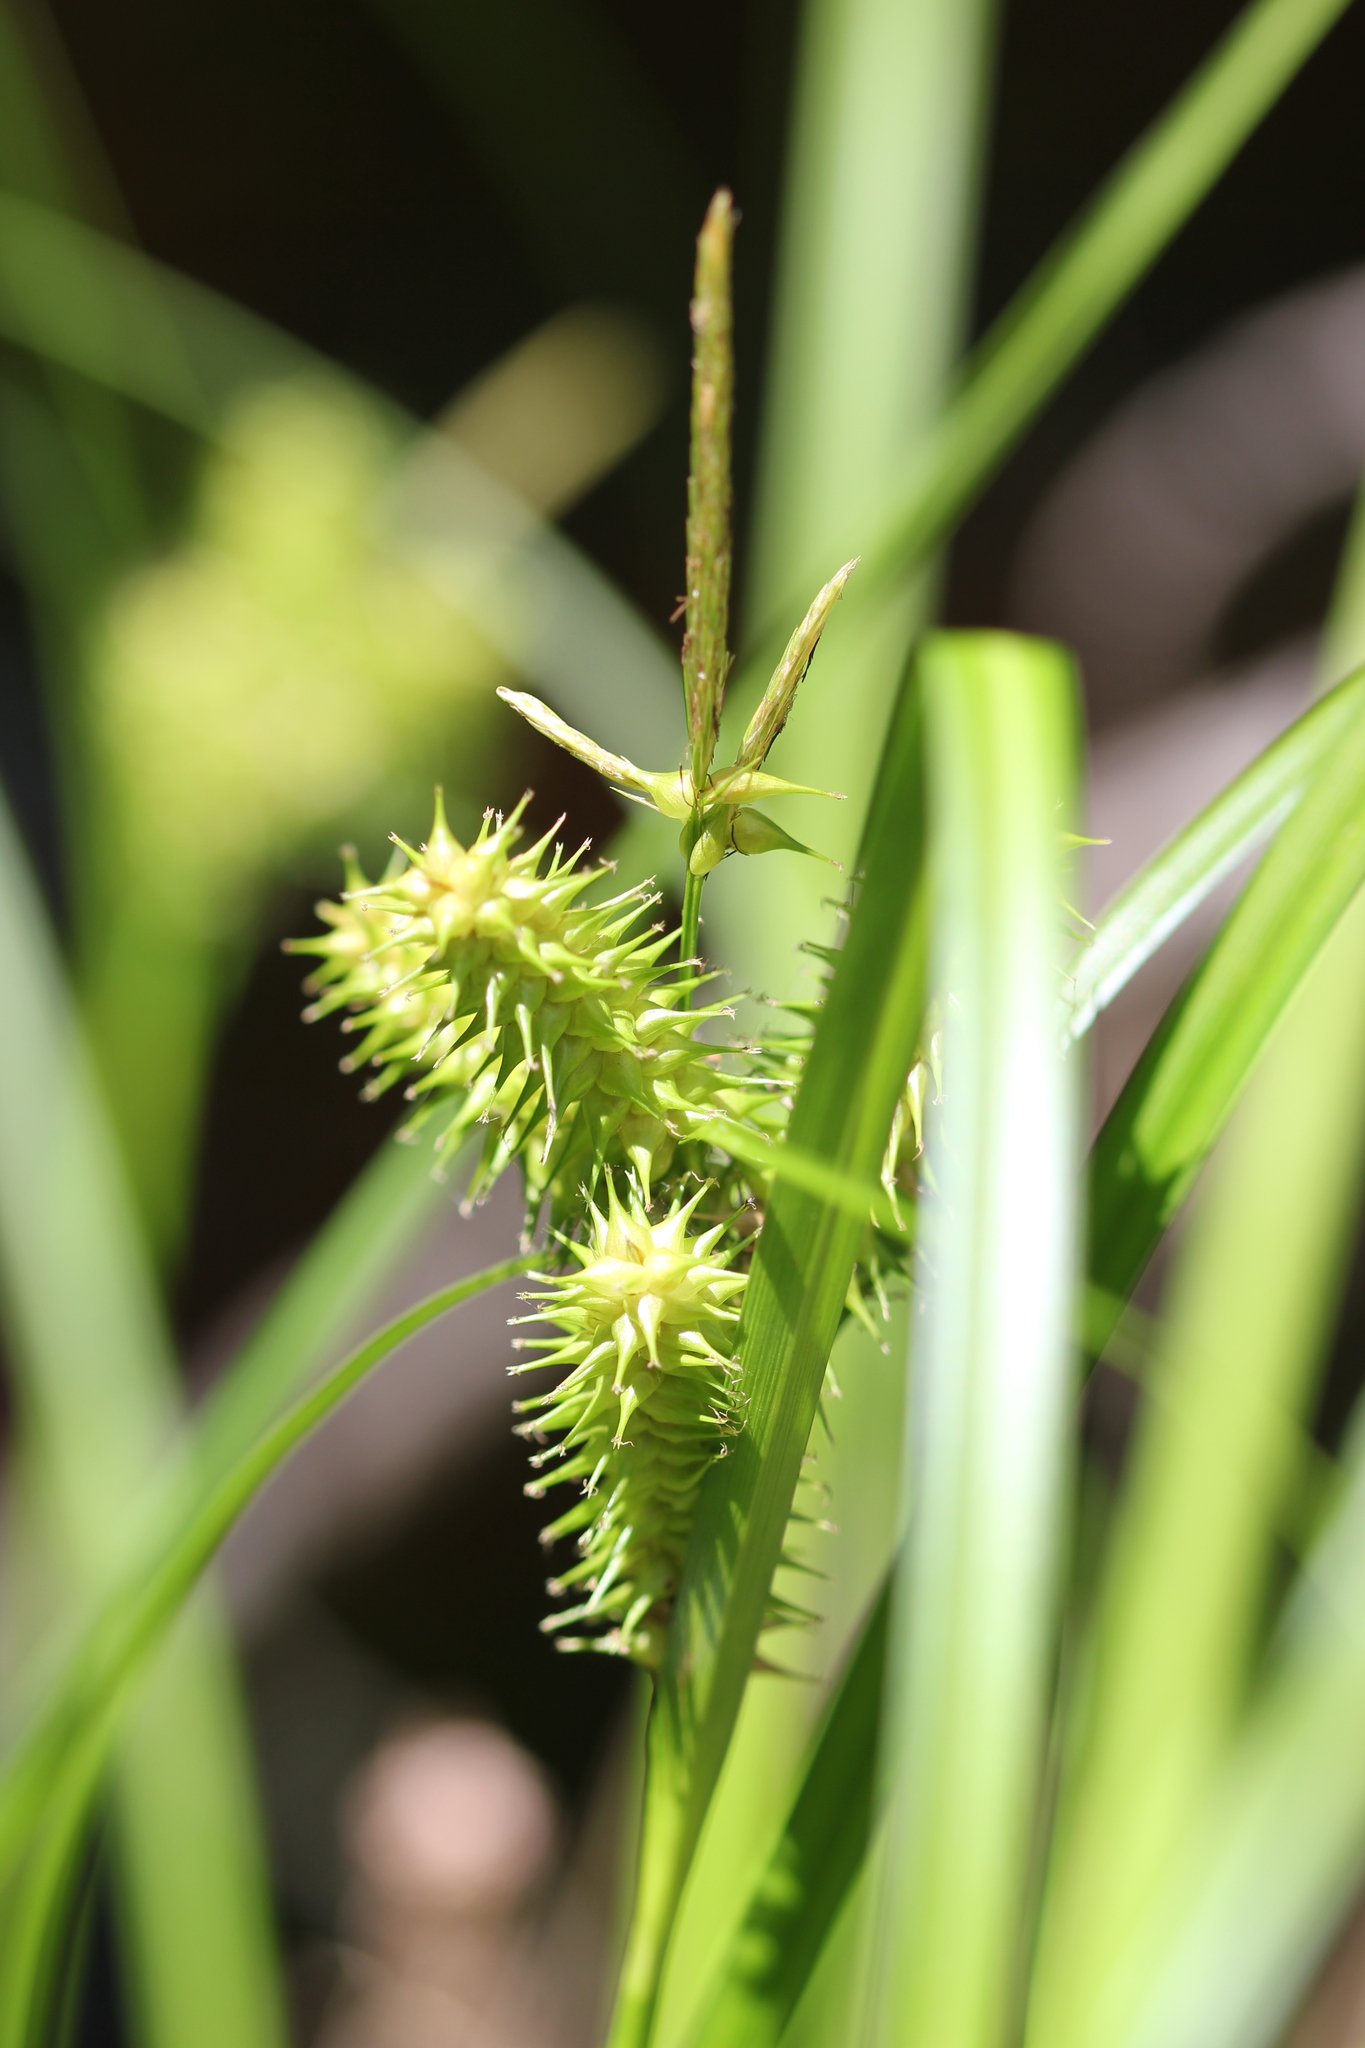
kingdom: Plantae
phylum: Tracheophyta
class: Liliopsida
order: Poales
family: Cyperaceae
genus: Carex
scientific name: Carex retrorsa
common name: Knot-sheath sedge
